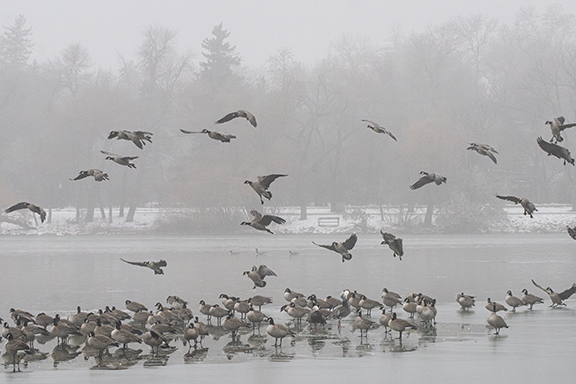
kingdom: Animalia
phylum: Chordata
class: Aves
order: Anseriformes
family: Anatidae
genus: Branta
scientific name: Branta canadensis
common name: Canada goose
